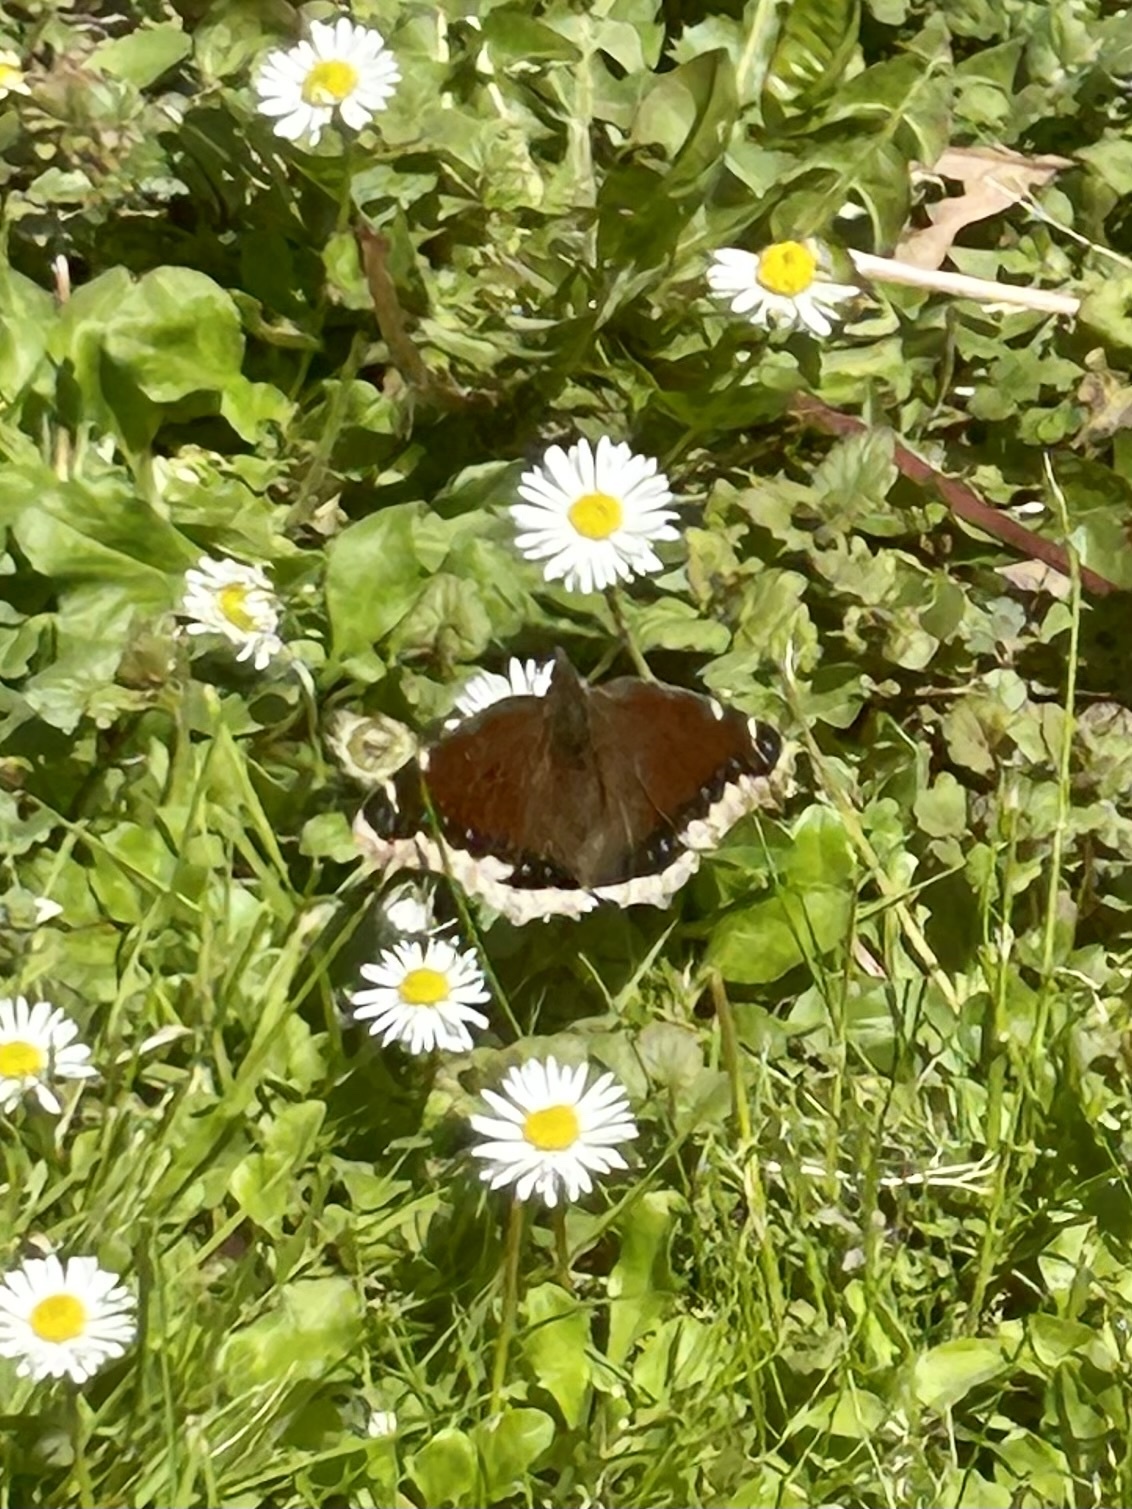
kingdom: Animalia
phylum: Arthropoda
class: Insecta
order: Lepidoptera
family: Nymphalidae
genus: Nymphalis
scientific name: Nymphalis antiopa
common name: Camberwell beauty
